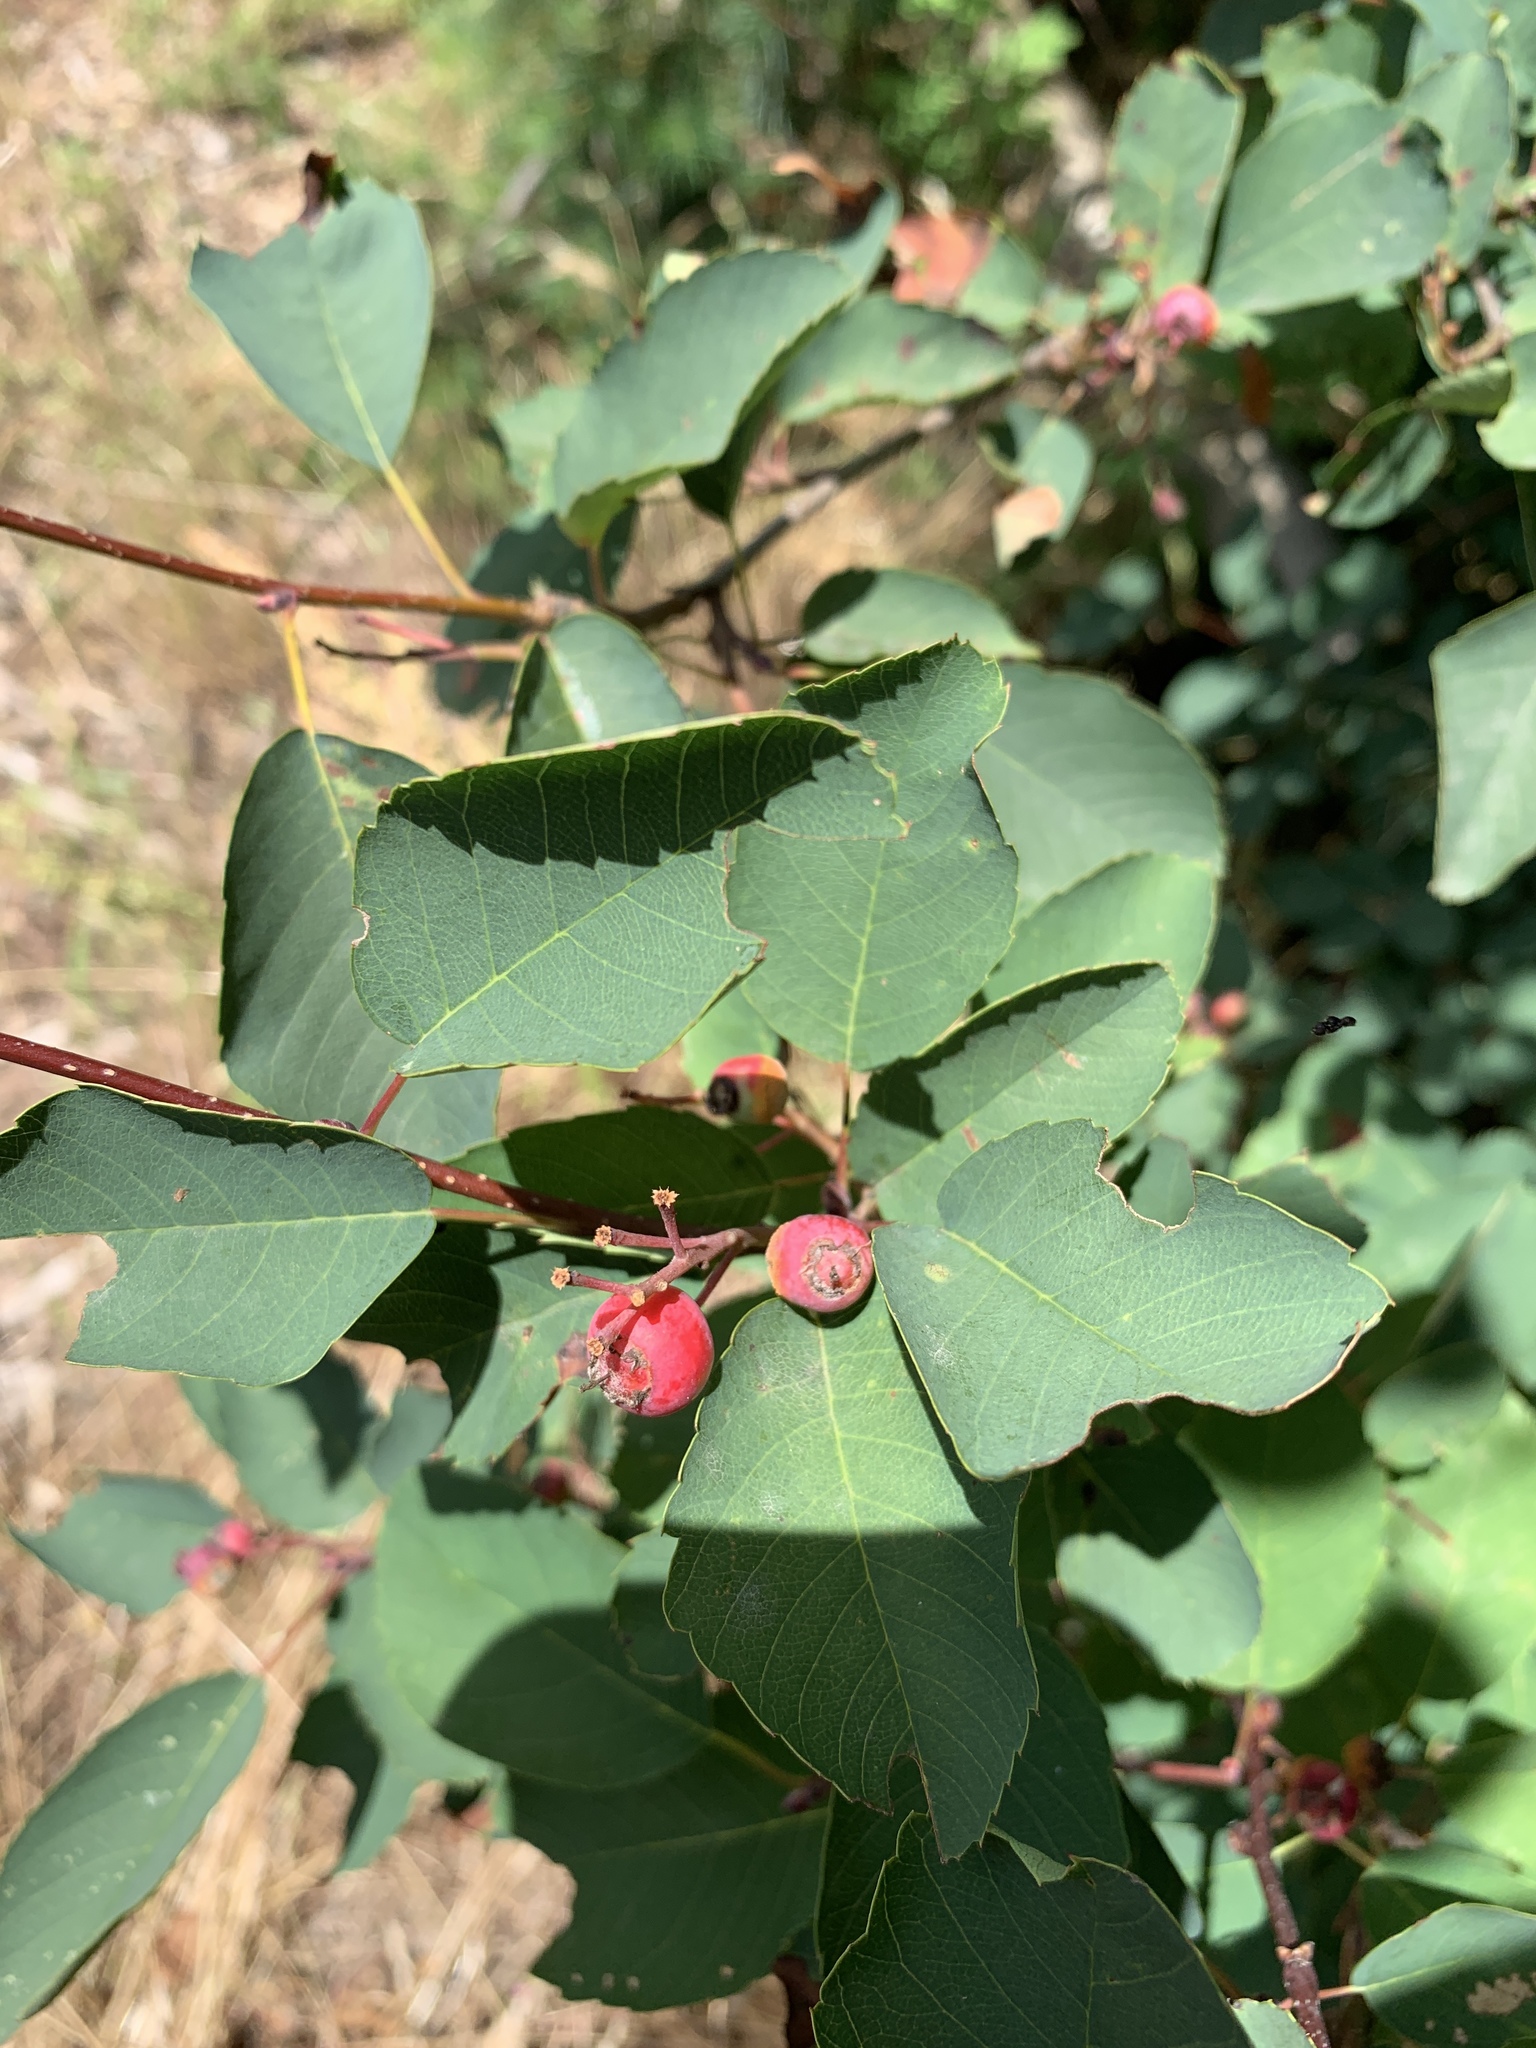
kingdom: Plantae
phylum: Tracheophyta
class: Magnoliopsida
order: Rosales
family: Rosaceae
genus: Amelanchier
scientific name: Amelanchier alnifolia
